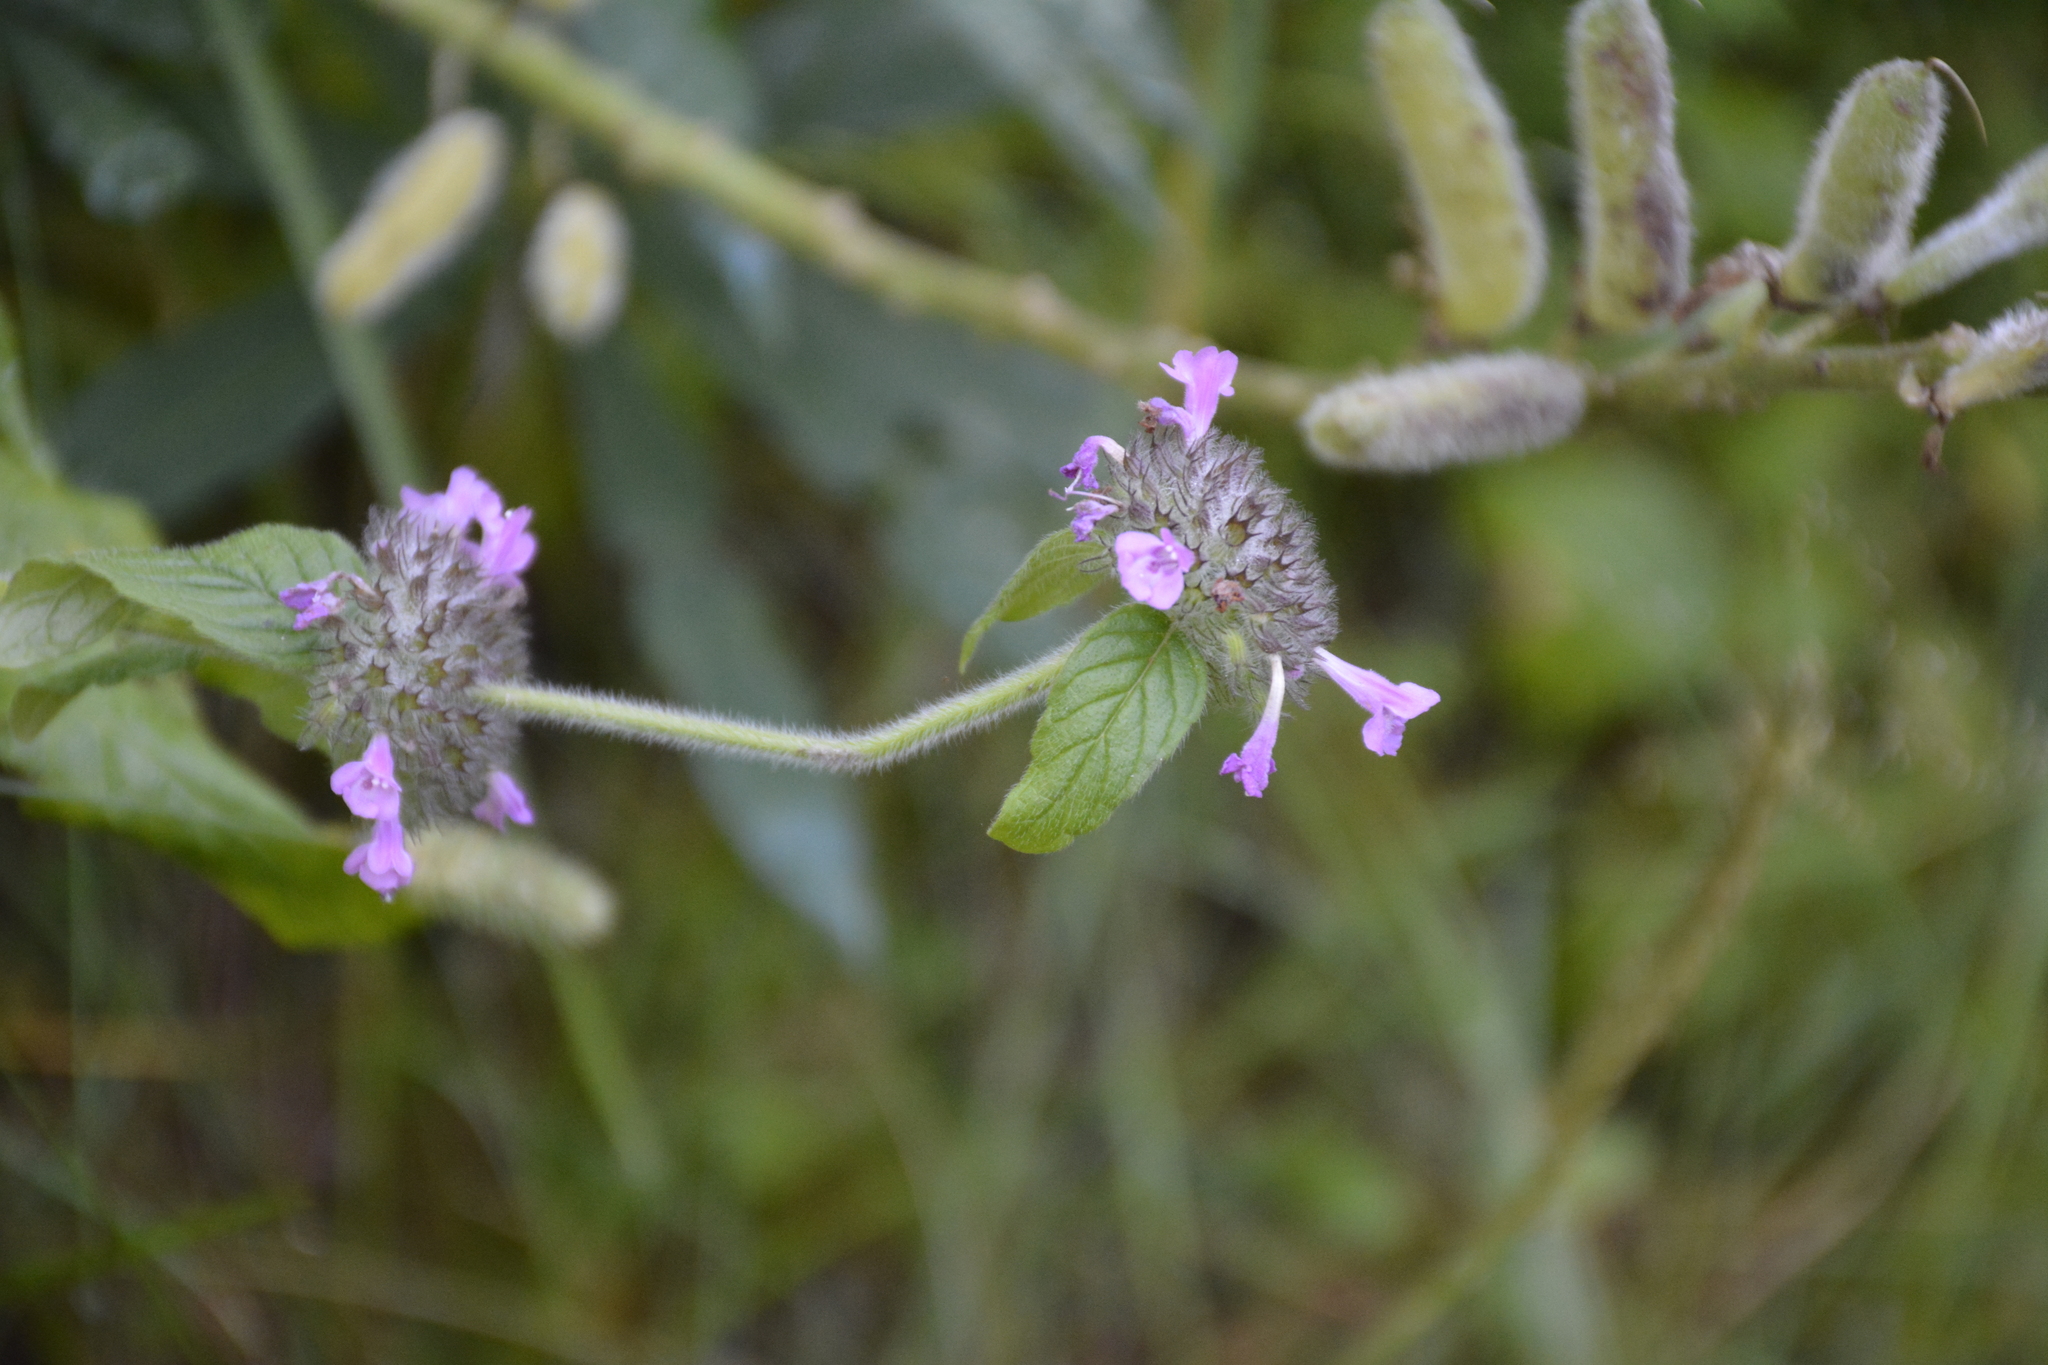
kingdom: Plantae
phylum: Tracheophyta
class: Magnoliopsida
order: Lamiales
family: Lamiaceae
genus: Clinopodium
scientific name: Clinopodium vulgare
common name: Wild basil
